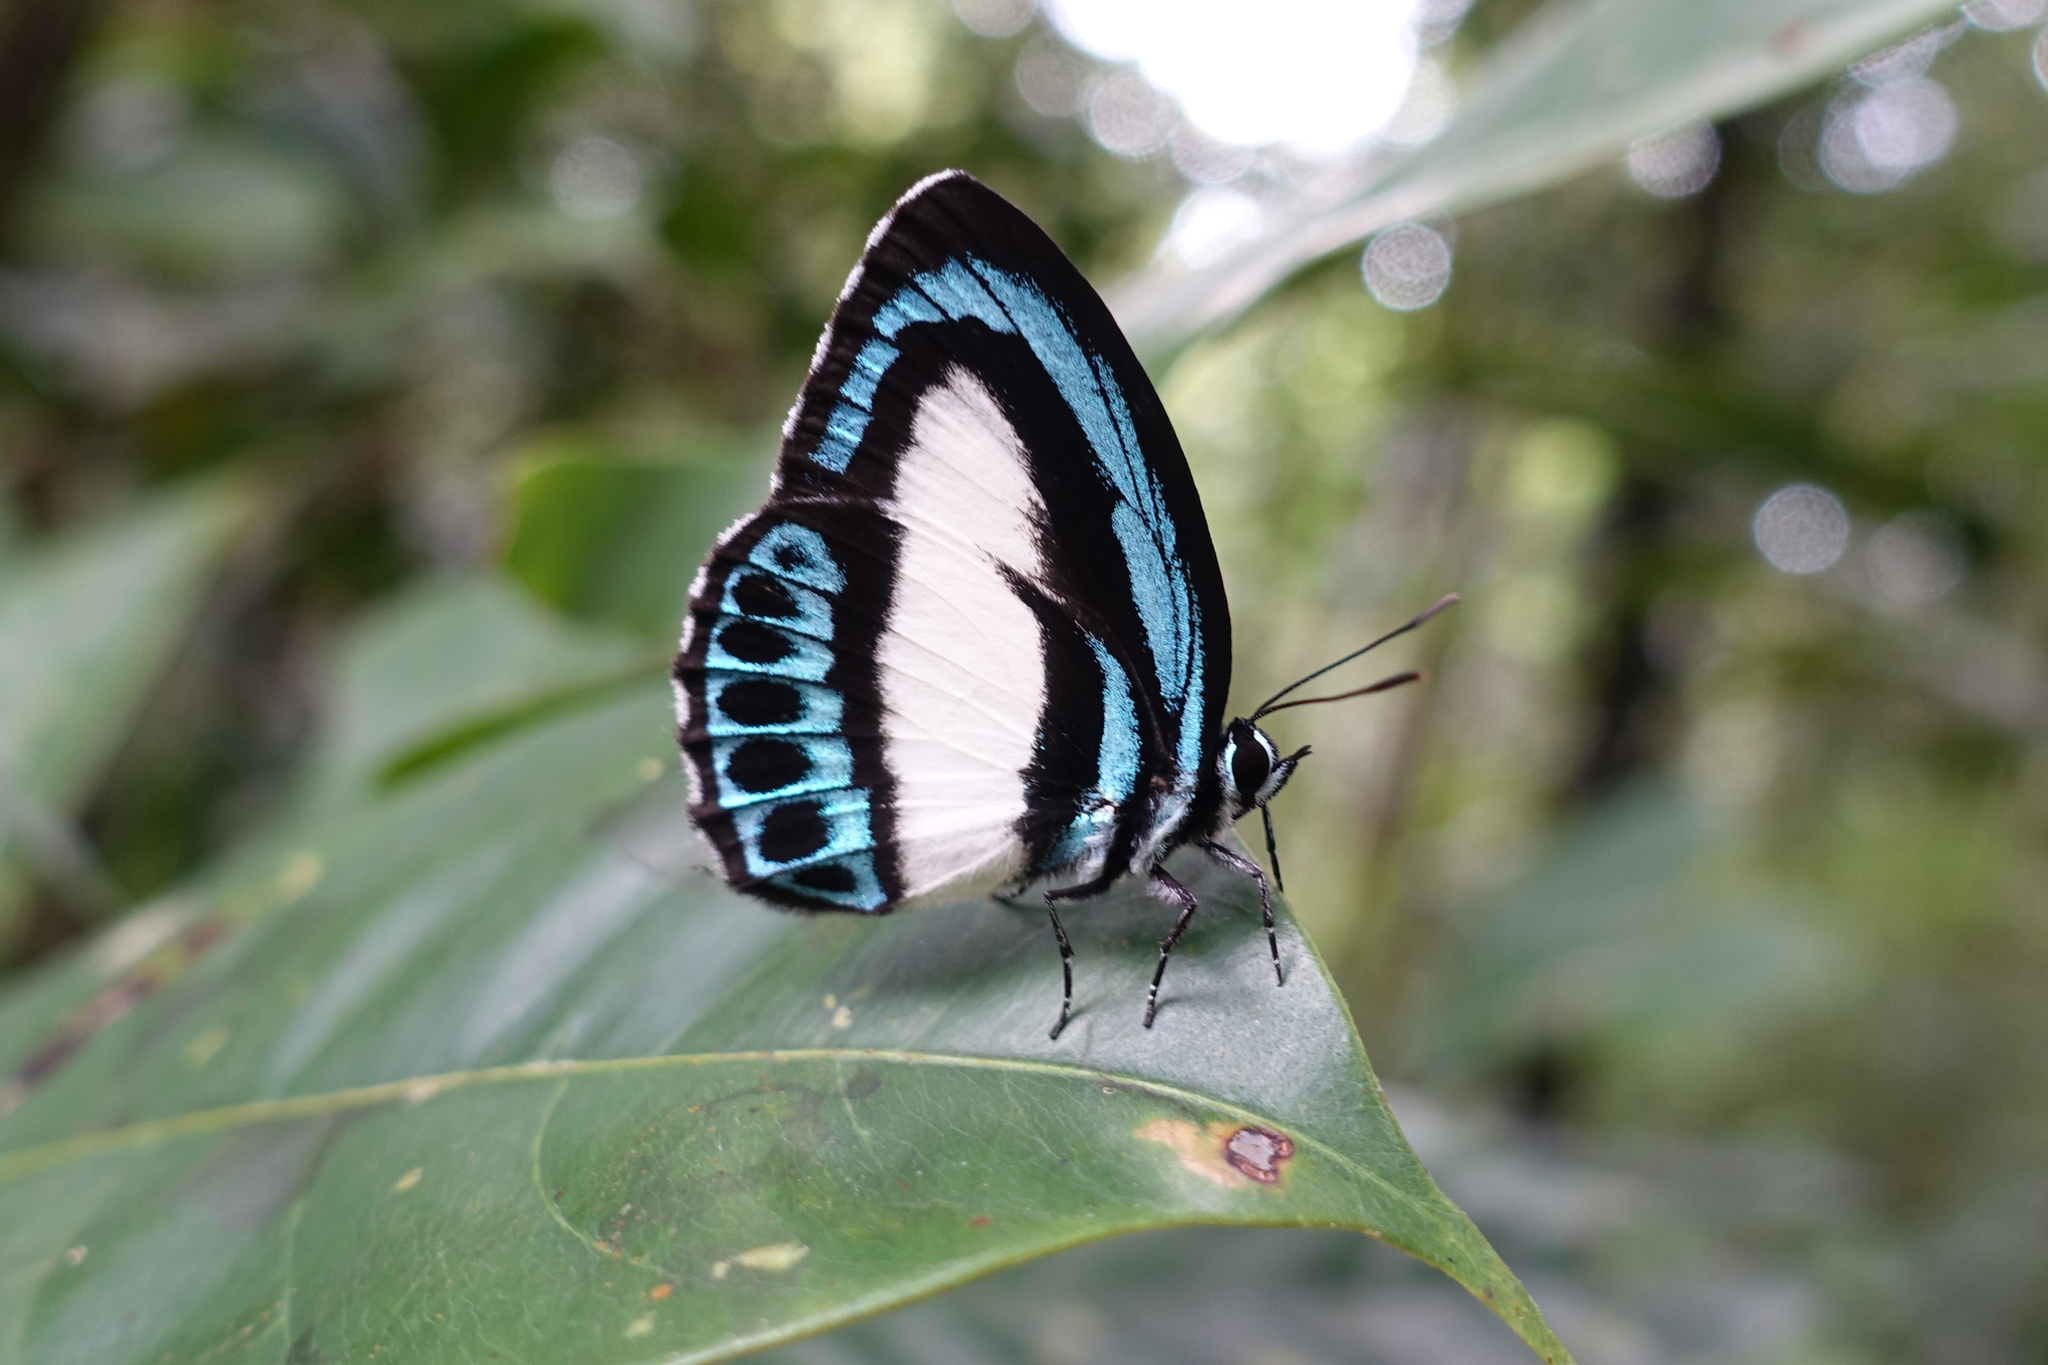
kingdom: Animalia
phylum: Arthropoda
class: Insecta
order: Lepidoptera
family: Lycaenidae
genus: Danis
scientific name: Danis danis
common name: Large green-banded blue
